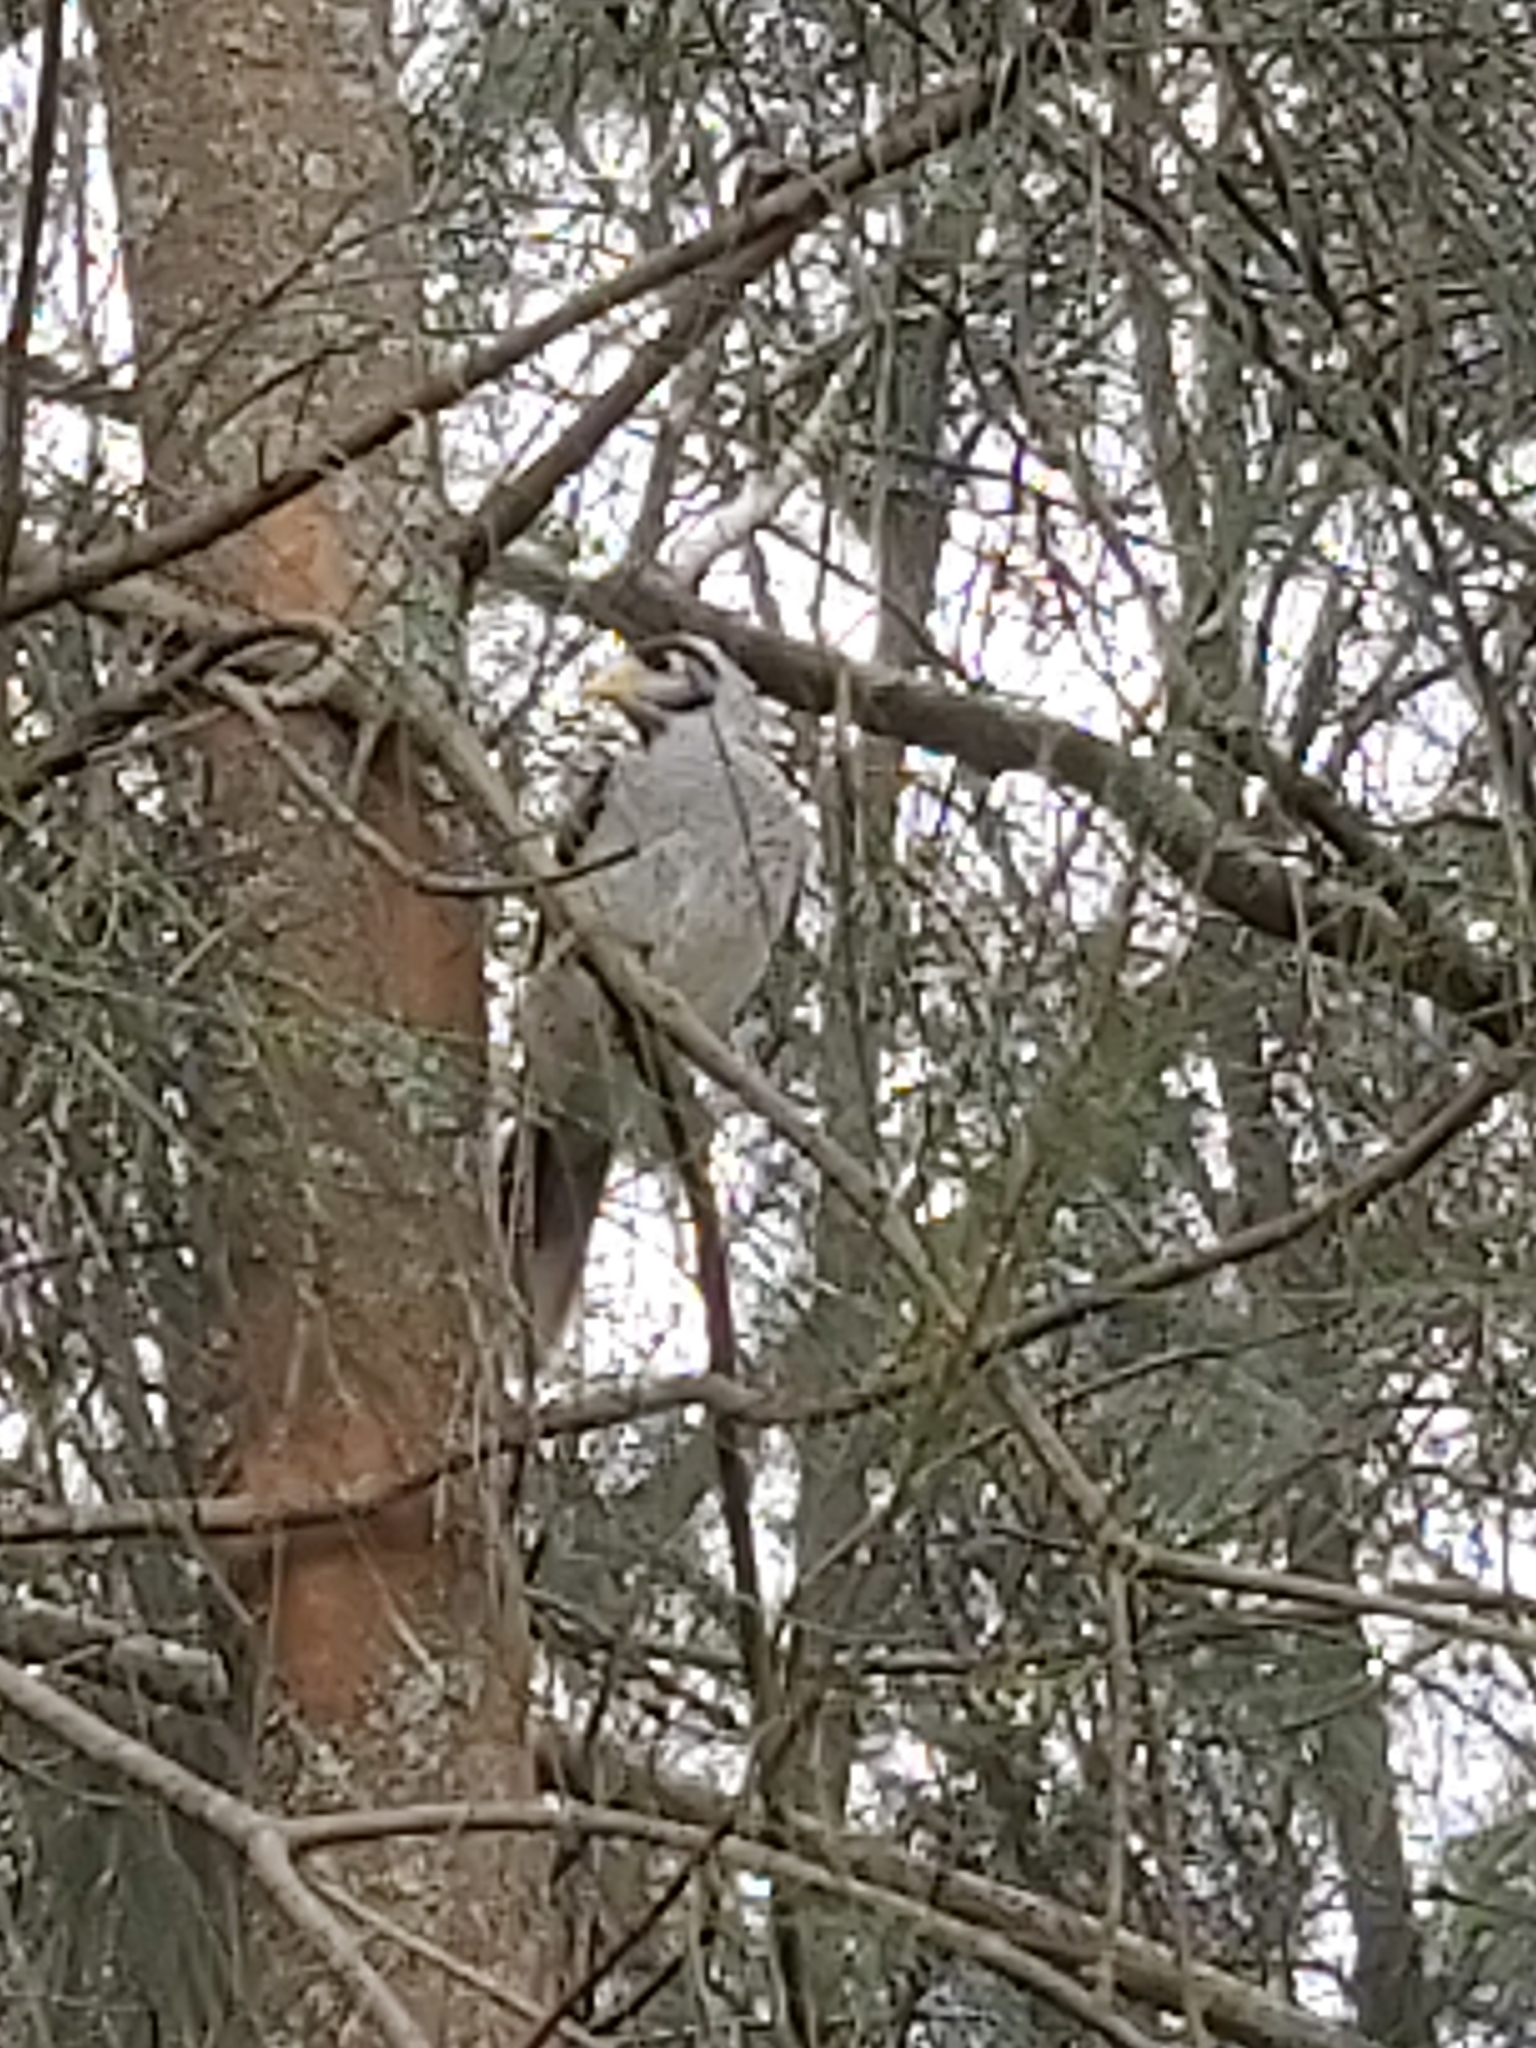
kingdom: Animalia
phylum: Chordata
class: Aves
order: Passeriformes
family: Meliphagidae
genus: Manorina
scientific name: Manorina melanocephala
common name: Noisy miner
